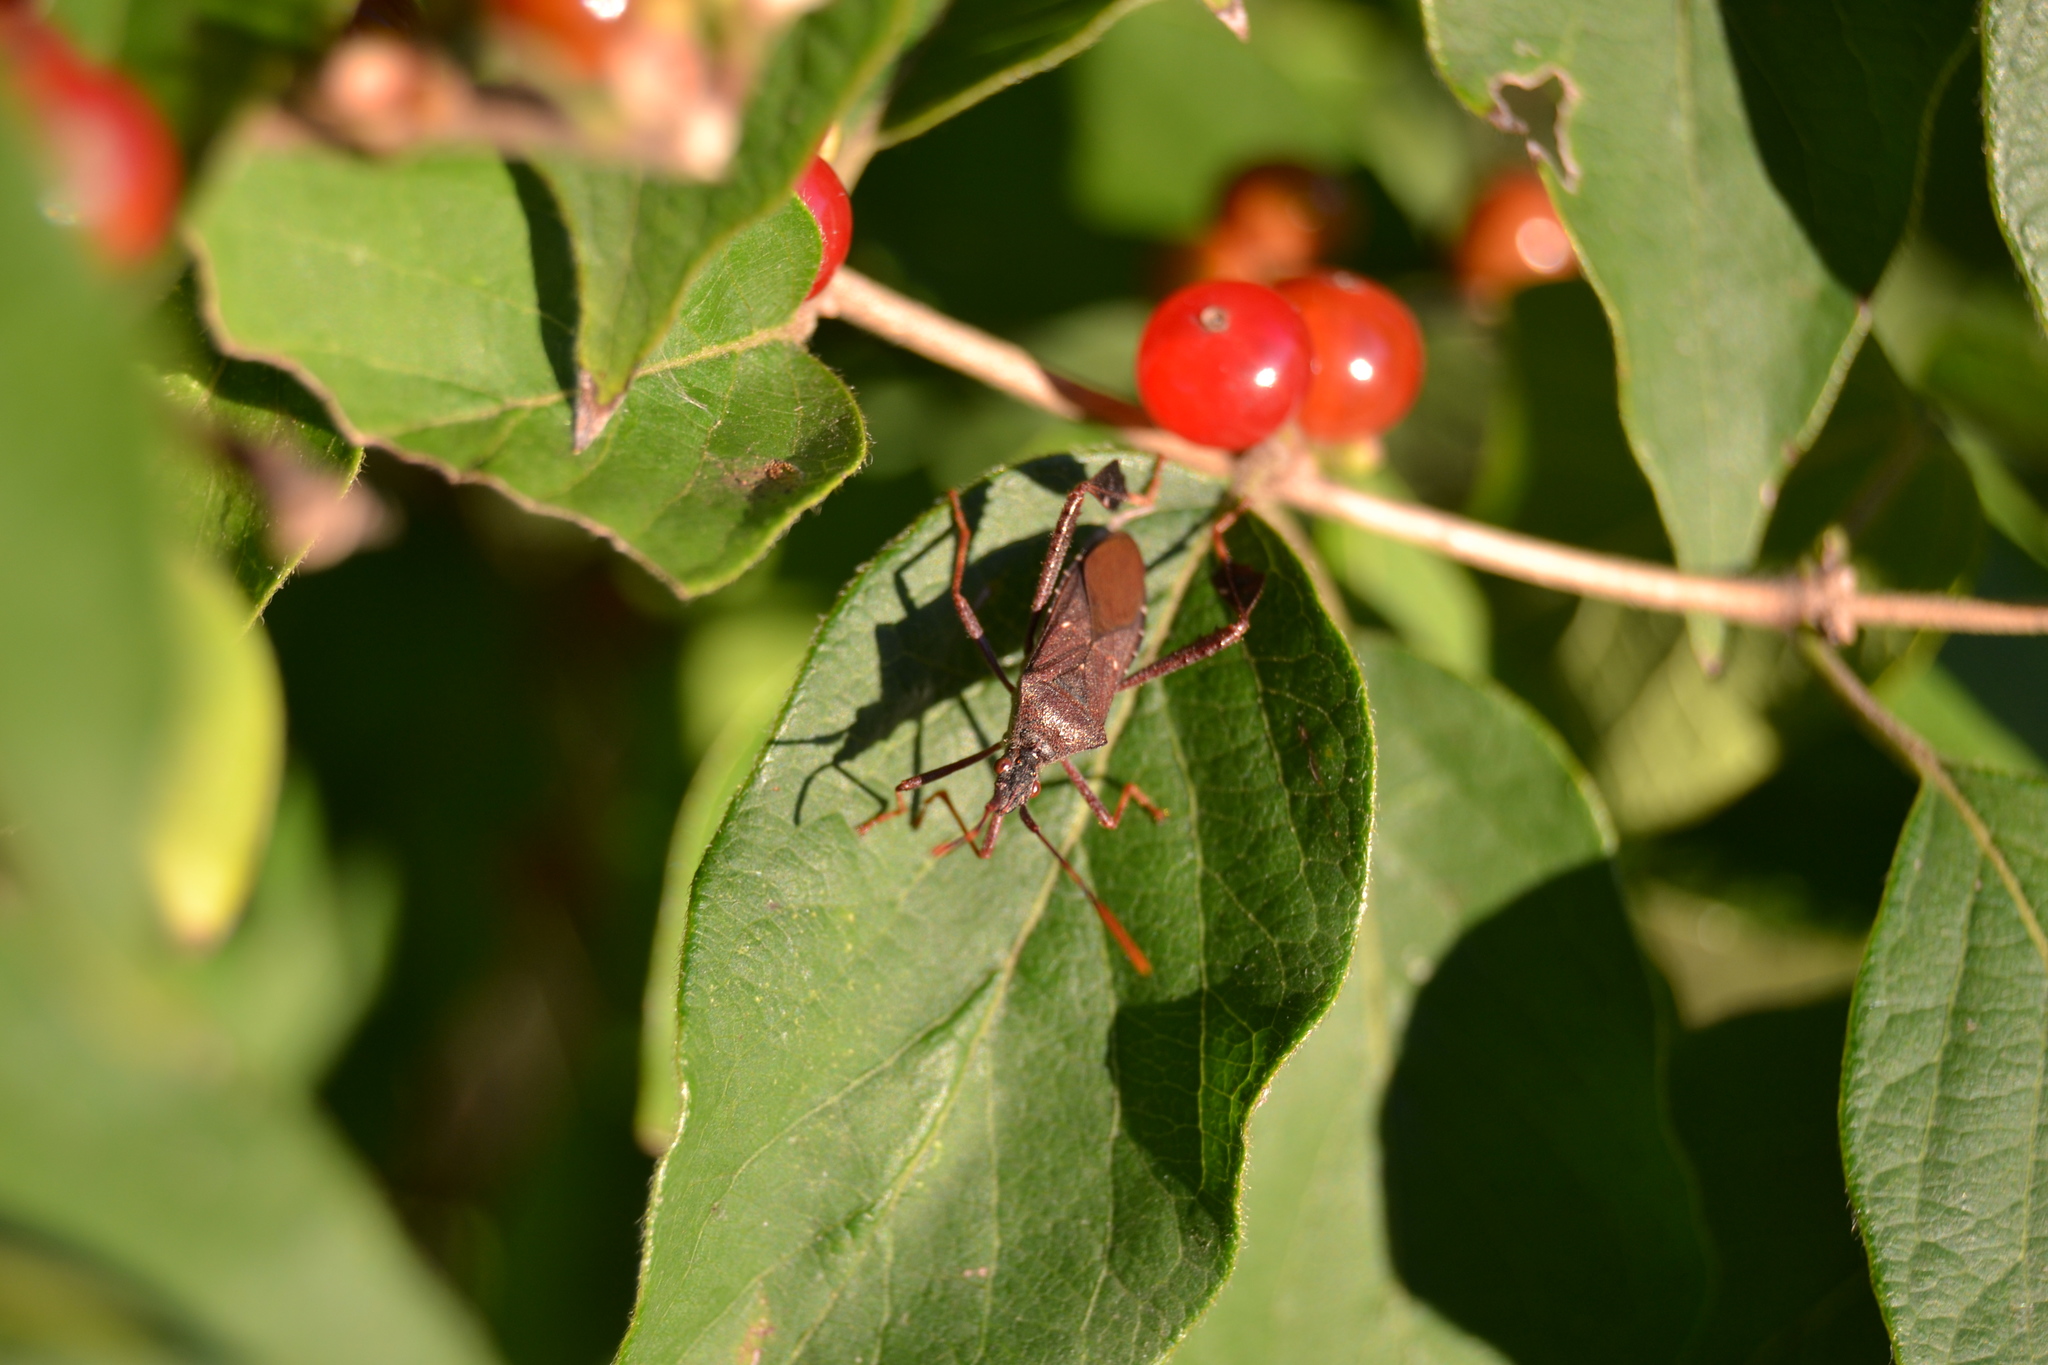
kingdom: Animalia
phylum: Arthropoda
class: Insecta
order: Hemiptera
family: Coreidae
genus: Leptoglossus
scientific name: Leptoglossus oppositus
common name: Northern leaf-footed bug
